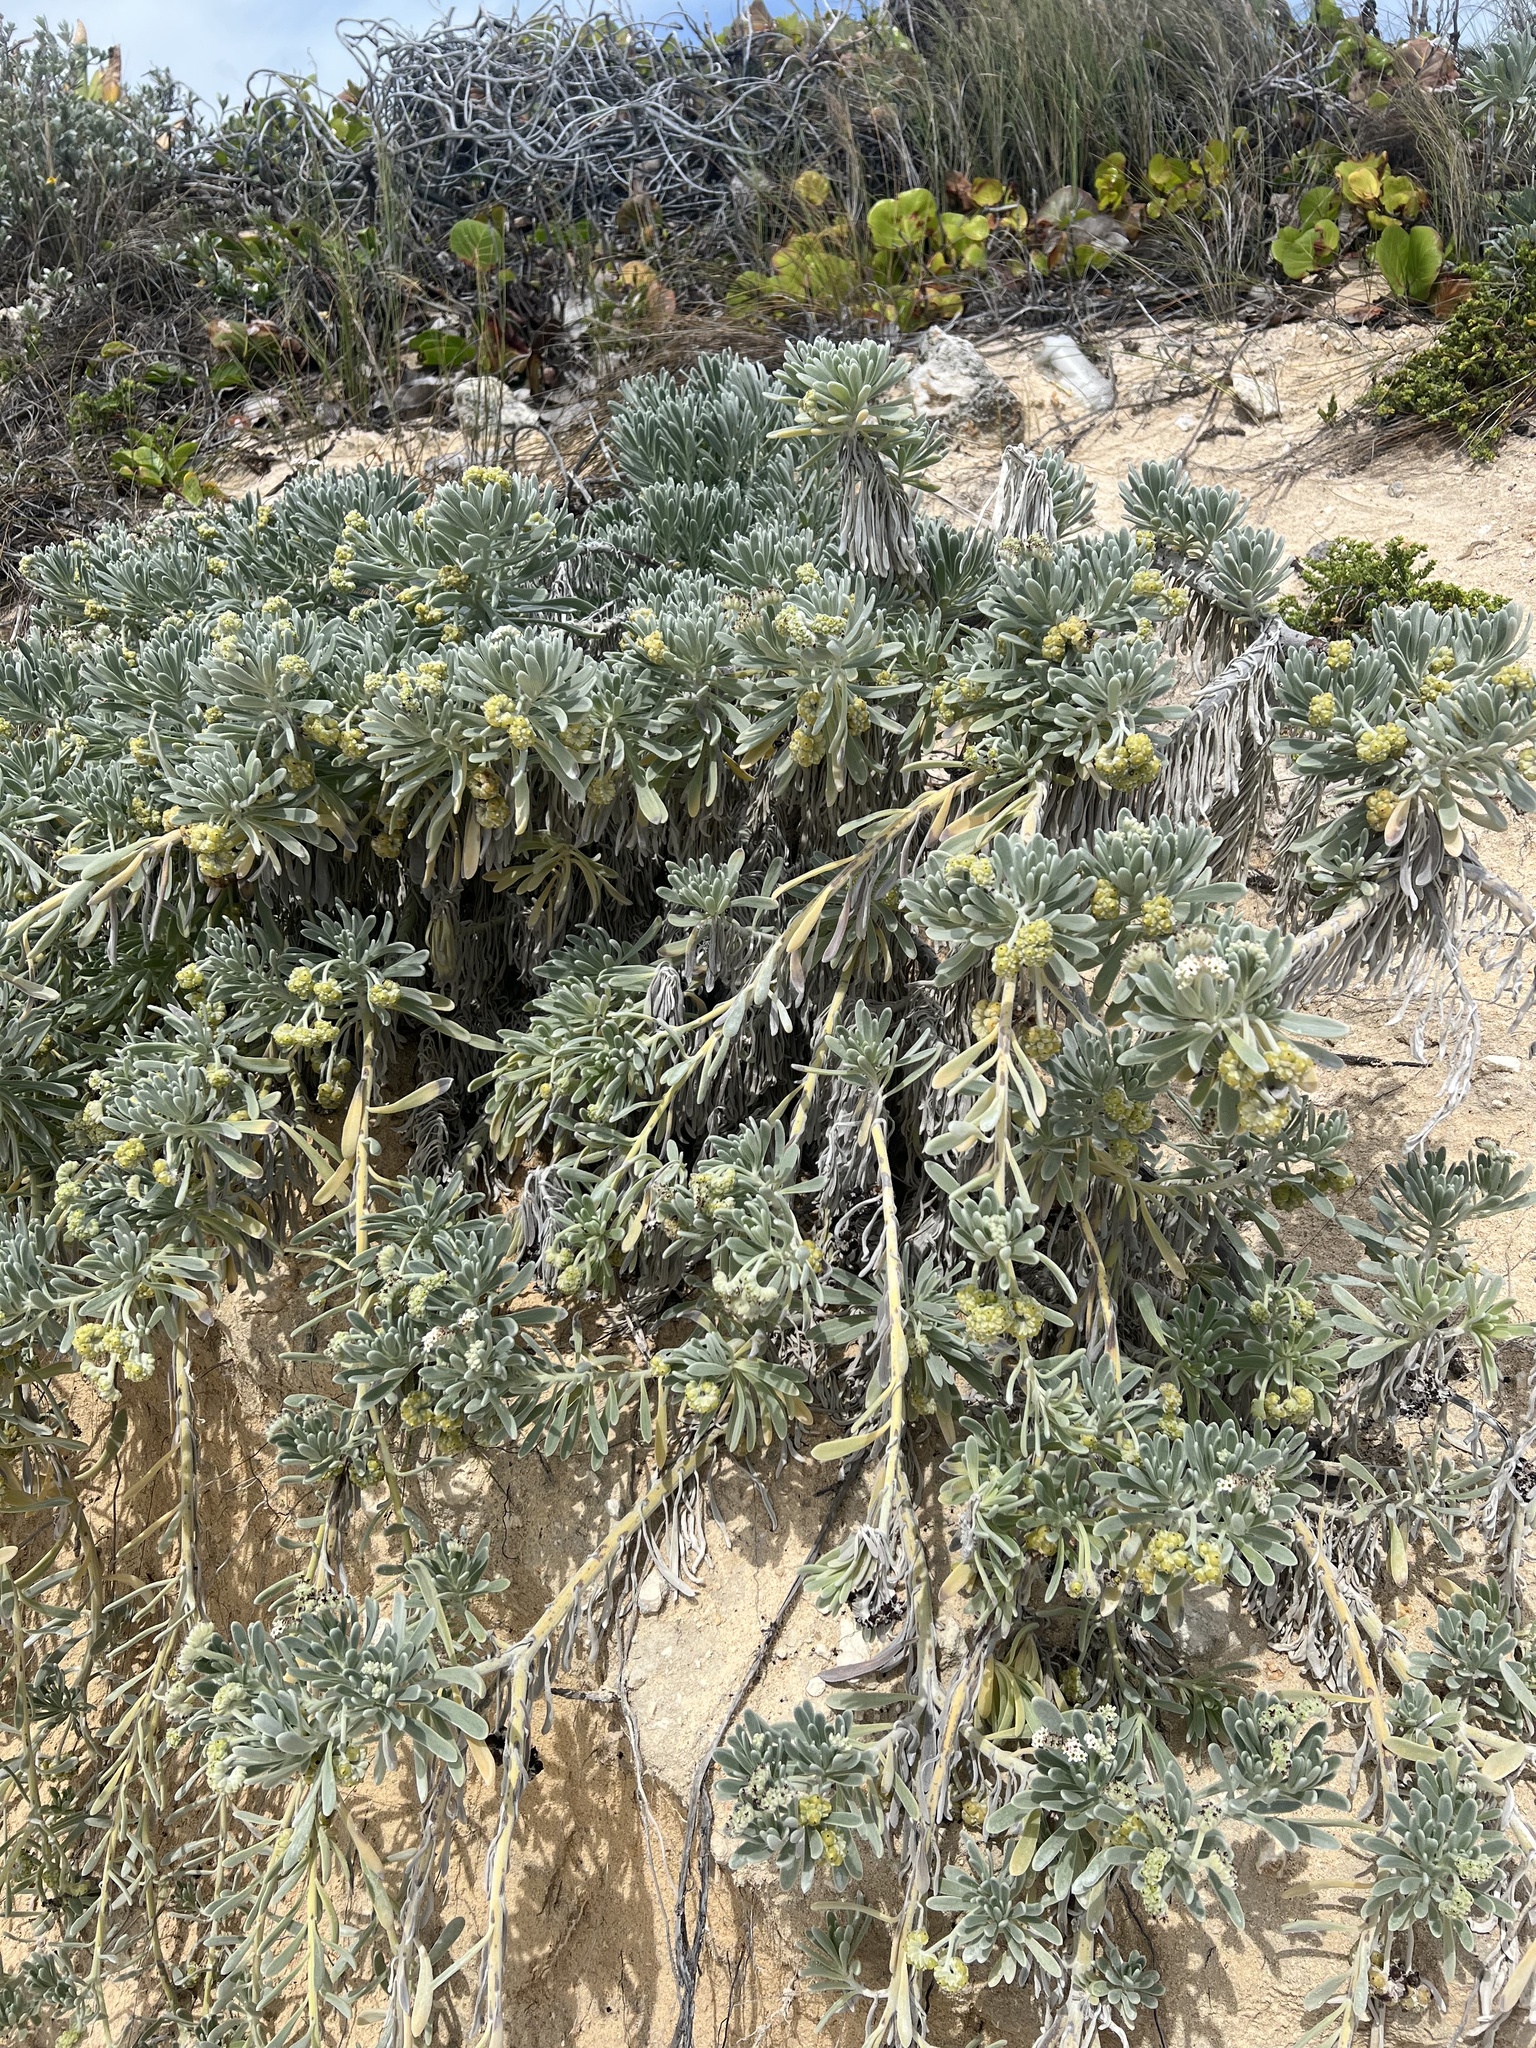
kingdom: Plantae
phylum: Tracheophyta
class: Magnoliopsida
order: Boraginales
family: Heliotropiaceae
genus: Tournefortia
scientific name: Tournefortia gnaphalodes
